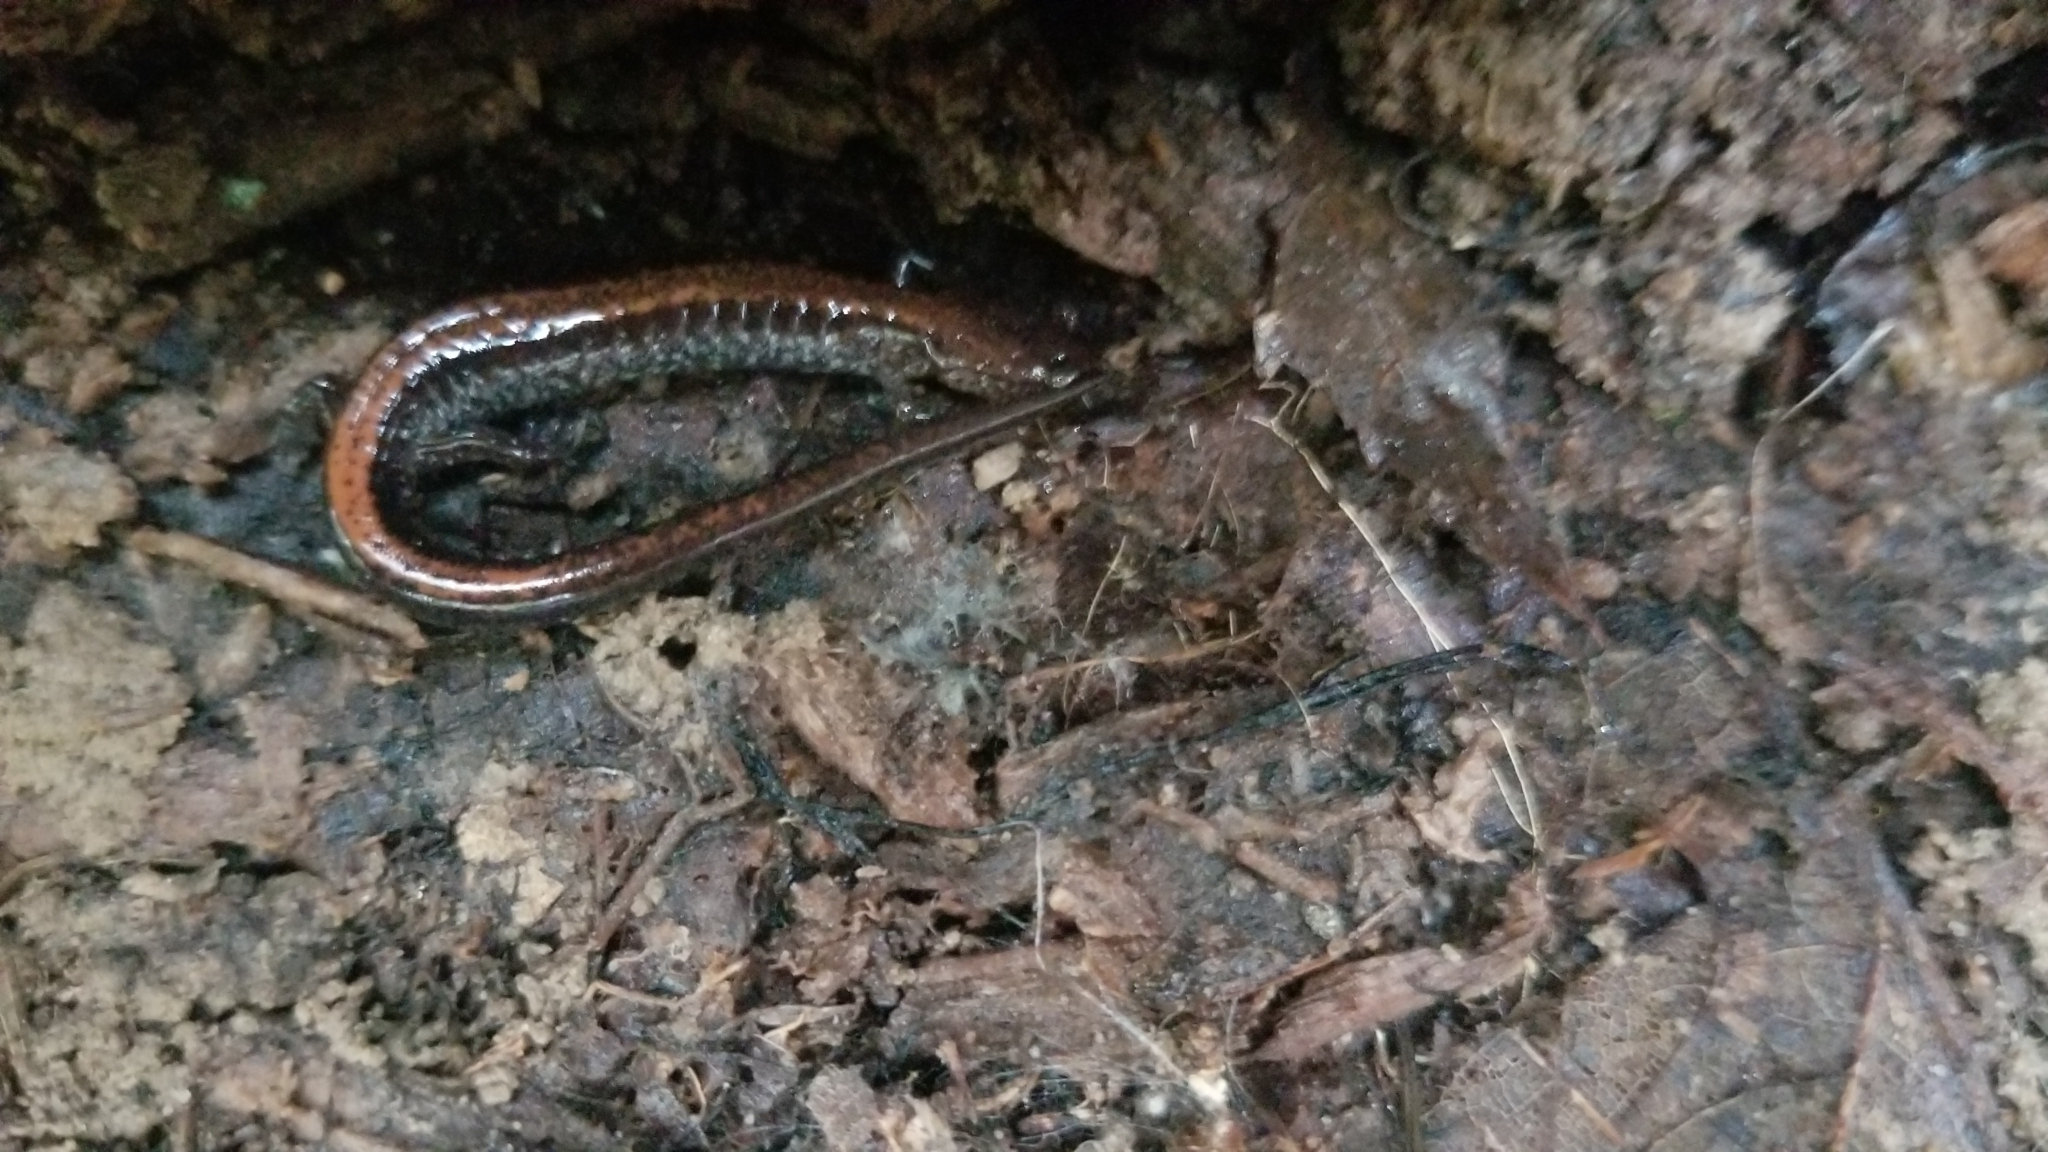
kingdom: Animalia
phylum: Chordata
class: Amphibia
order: Caudata
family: Plethodontidae
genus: Plethodon
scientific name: Plethodon cinereus
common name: Redback salamander
